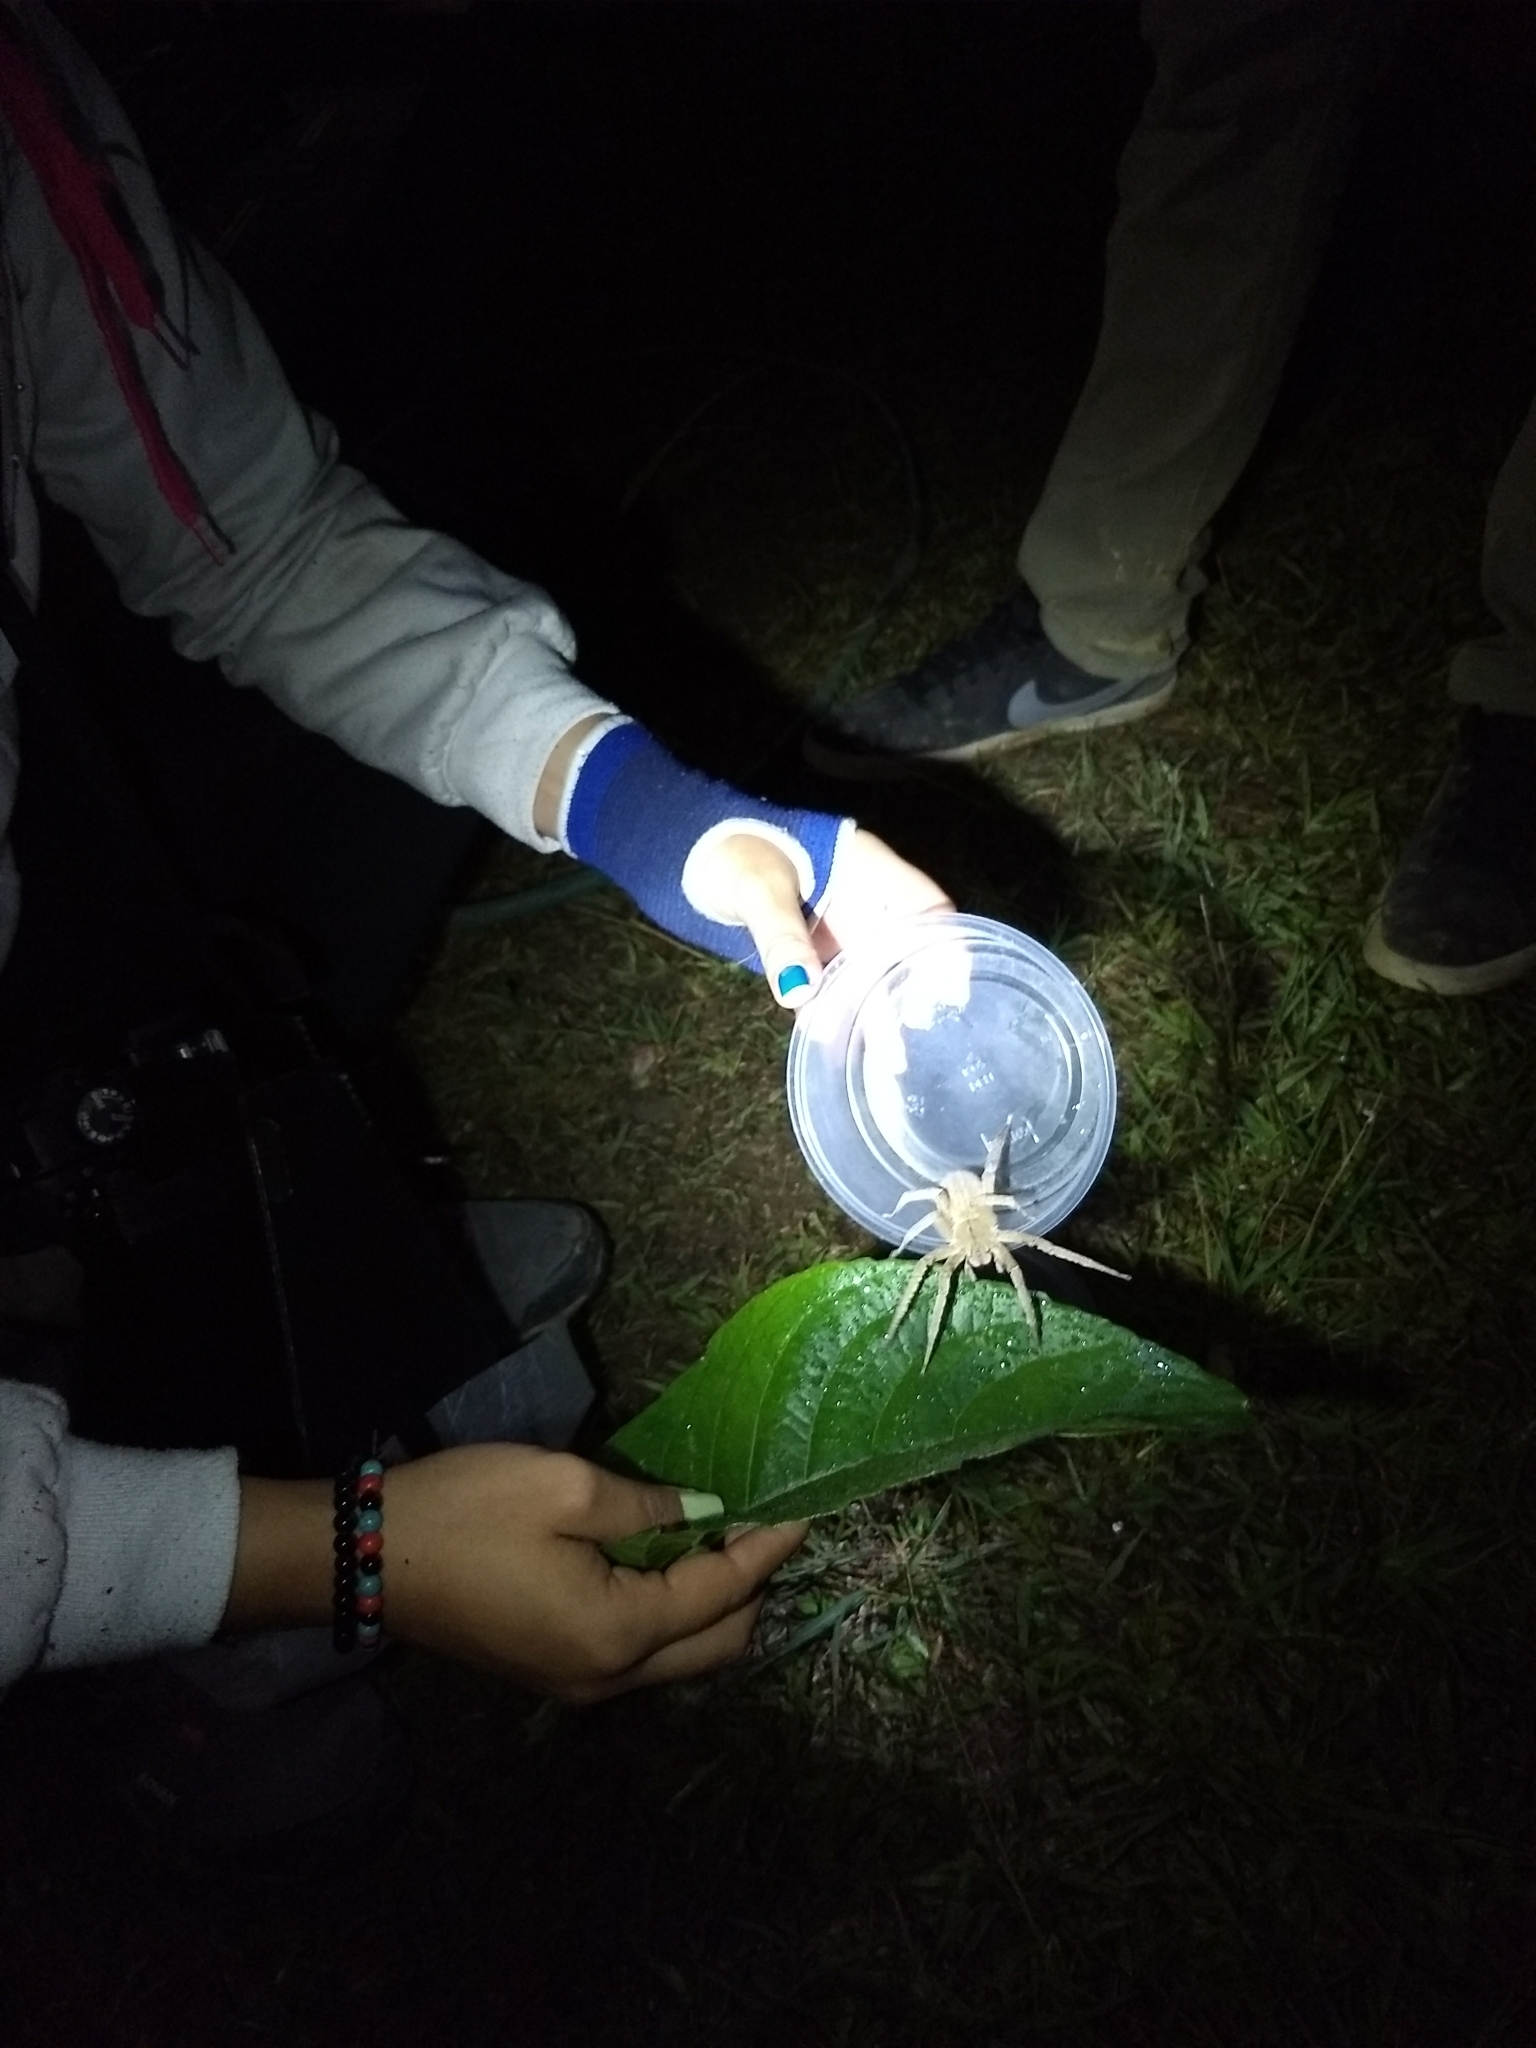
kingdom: Animalia
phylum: Arthropoda
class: Arachnida
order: Araneae
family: Ctenidae
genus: Phoneutria
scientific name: Phoneutria depilata
